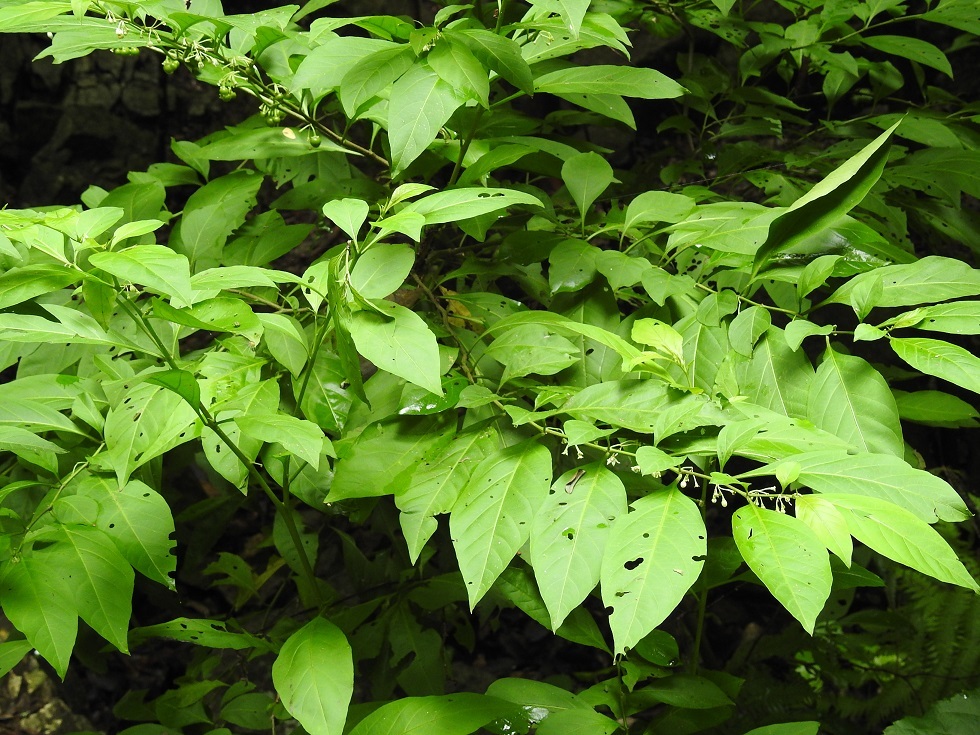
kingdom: Plantae
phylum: Tracheophyta
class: Magnoliopsida
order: Solanales
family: Solanaceae
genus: Witheringia
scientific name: Witheringia meiantha
